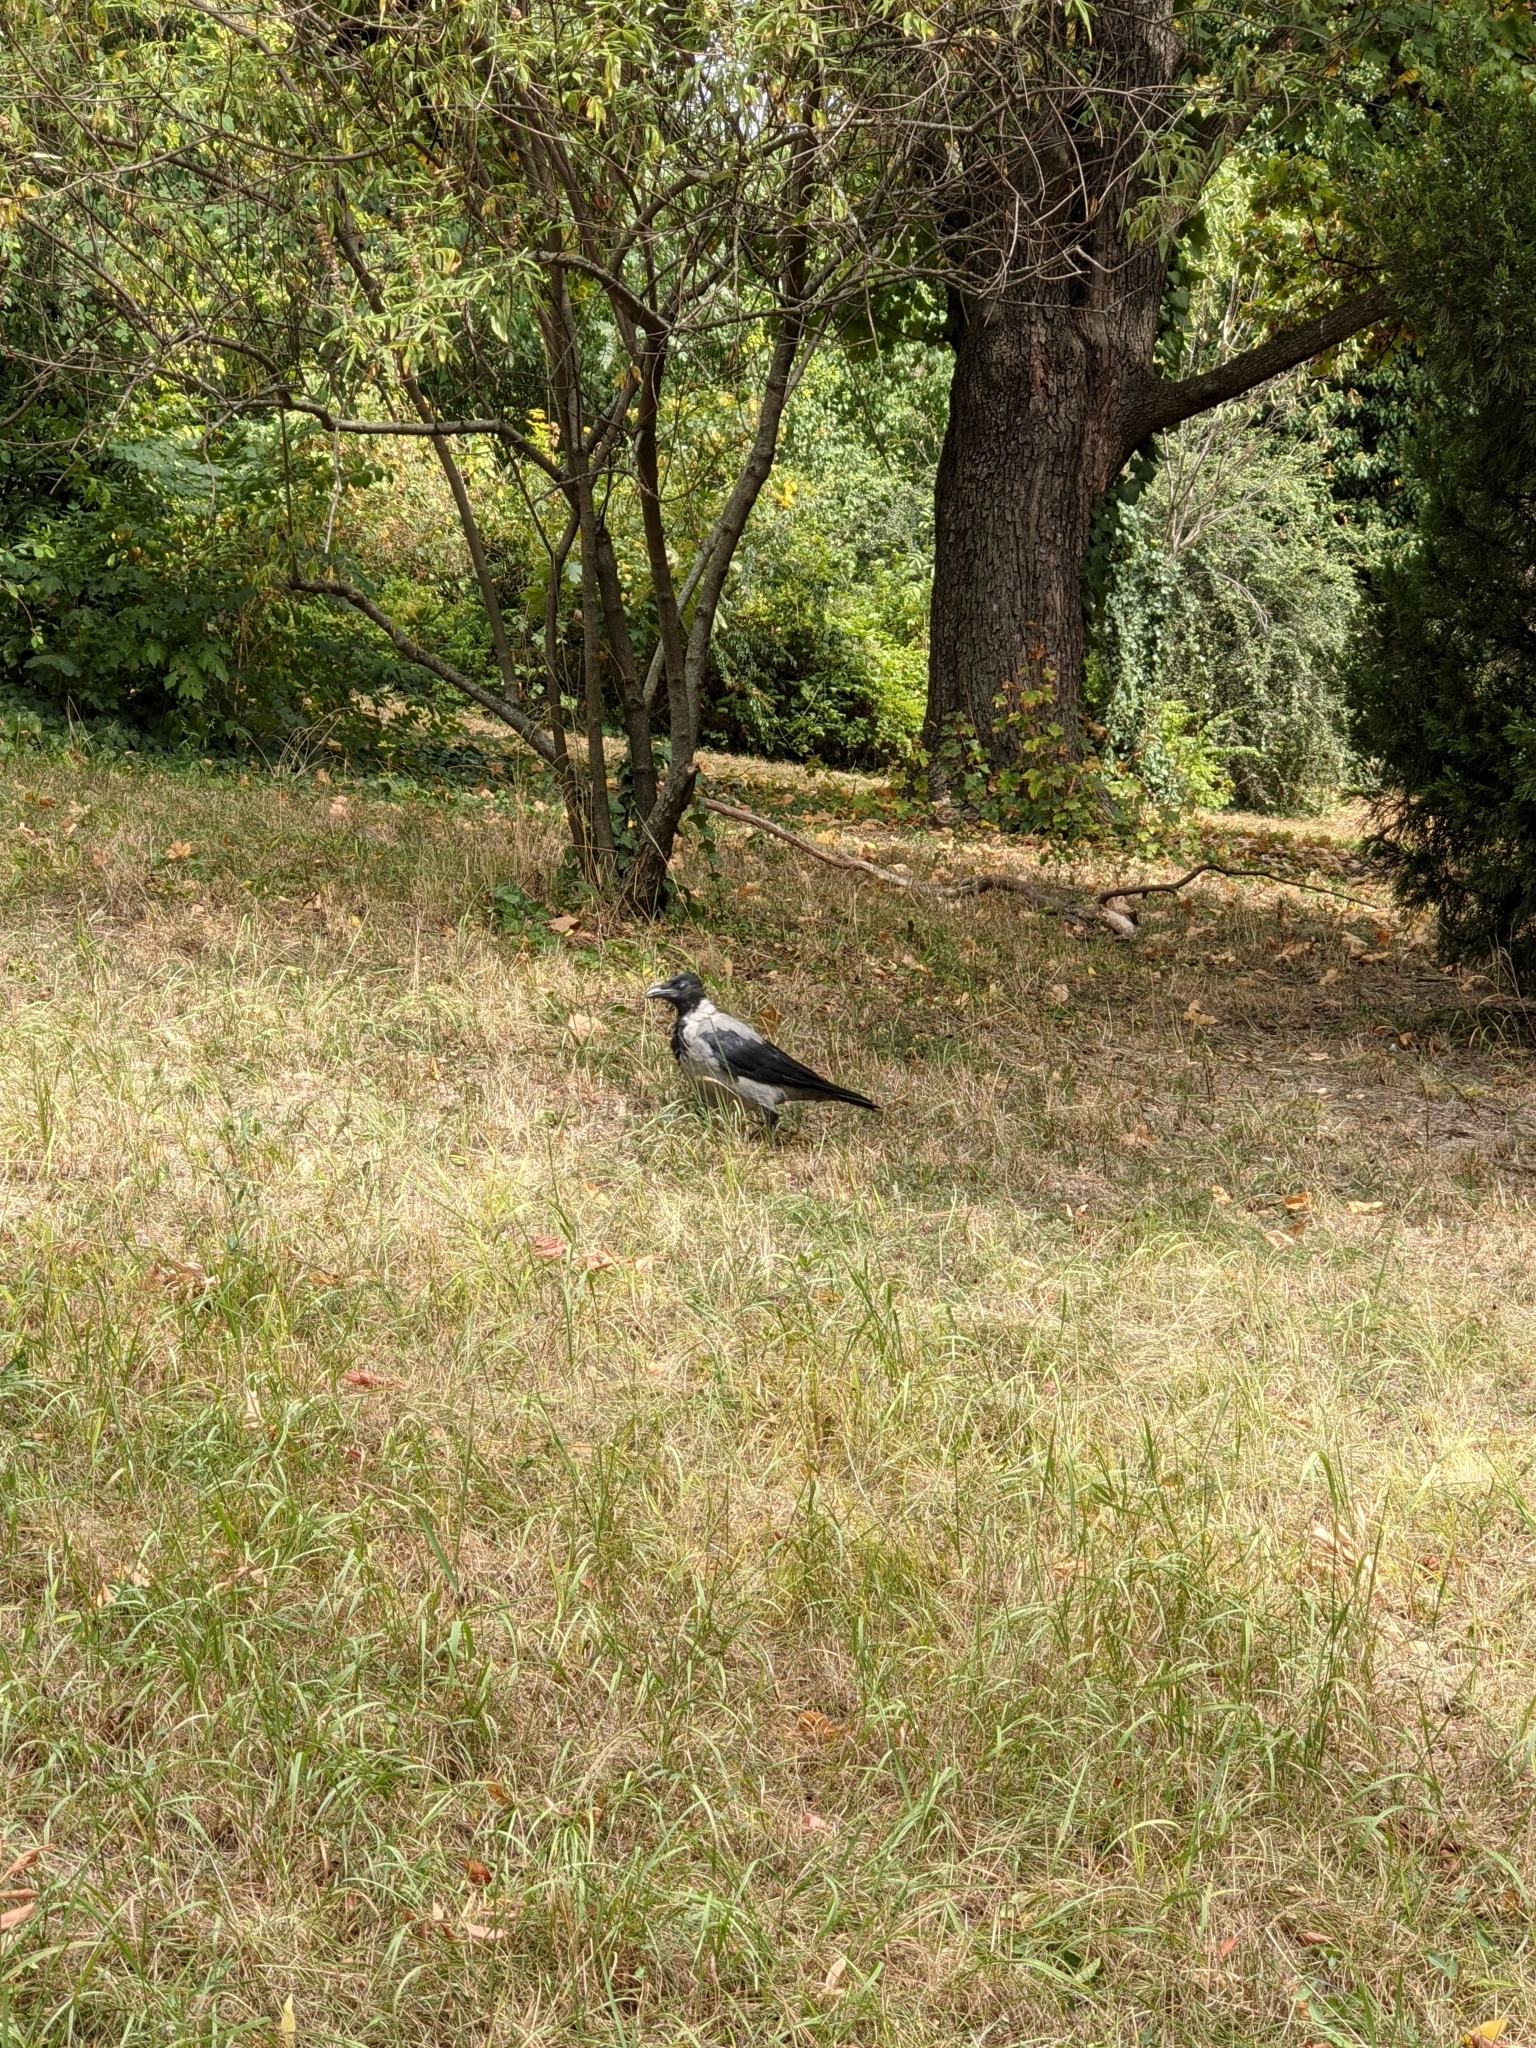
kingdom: Animalia
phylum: Chordata
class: Aves
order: Passeriformes
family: Corvidae
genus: Corvus
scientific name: Corvus cornix
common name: Hooded crow
